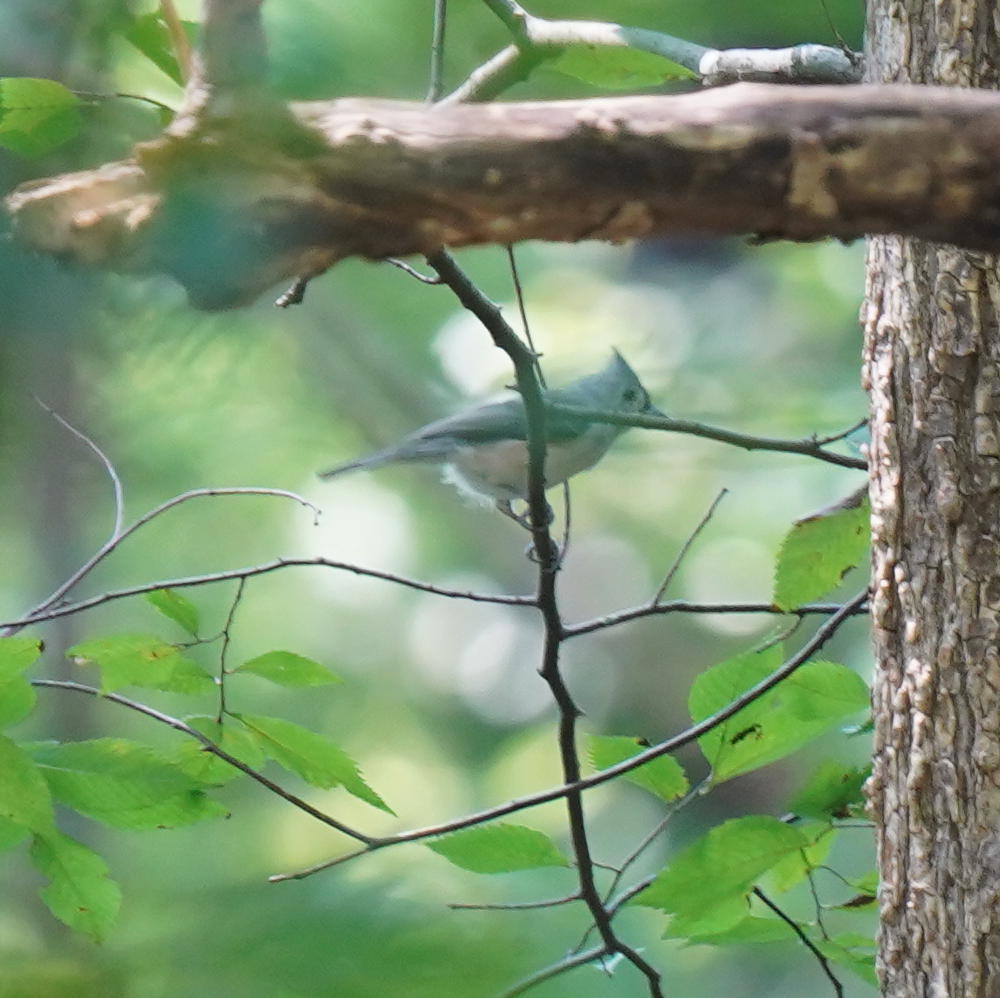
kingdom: Animalia
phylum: Chordata
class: Aves
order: Passeriformes
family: Paridae
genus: Baeolophus
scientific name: Baeolophus bicolor
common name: Tufted titmouse
